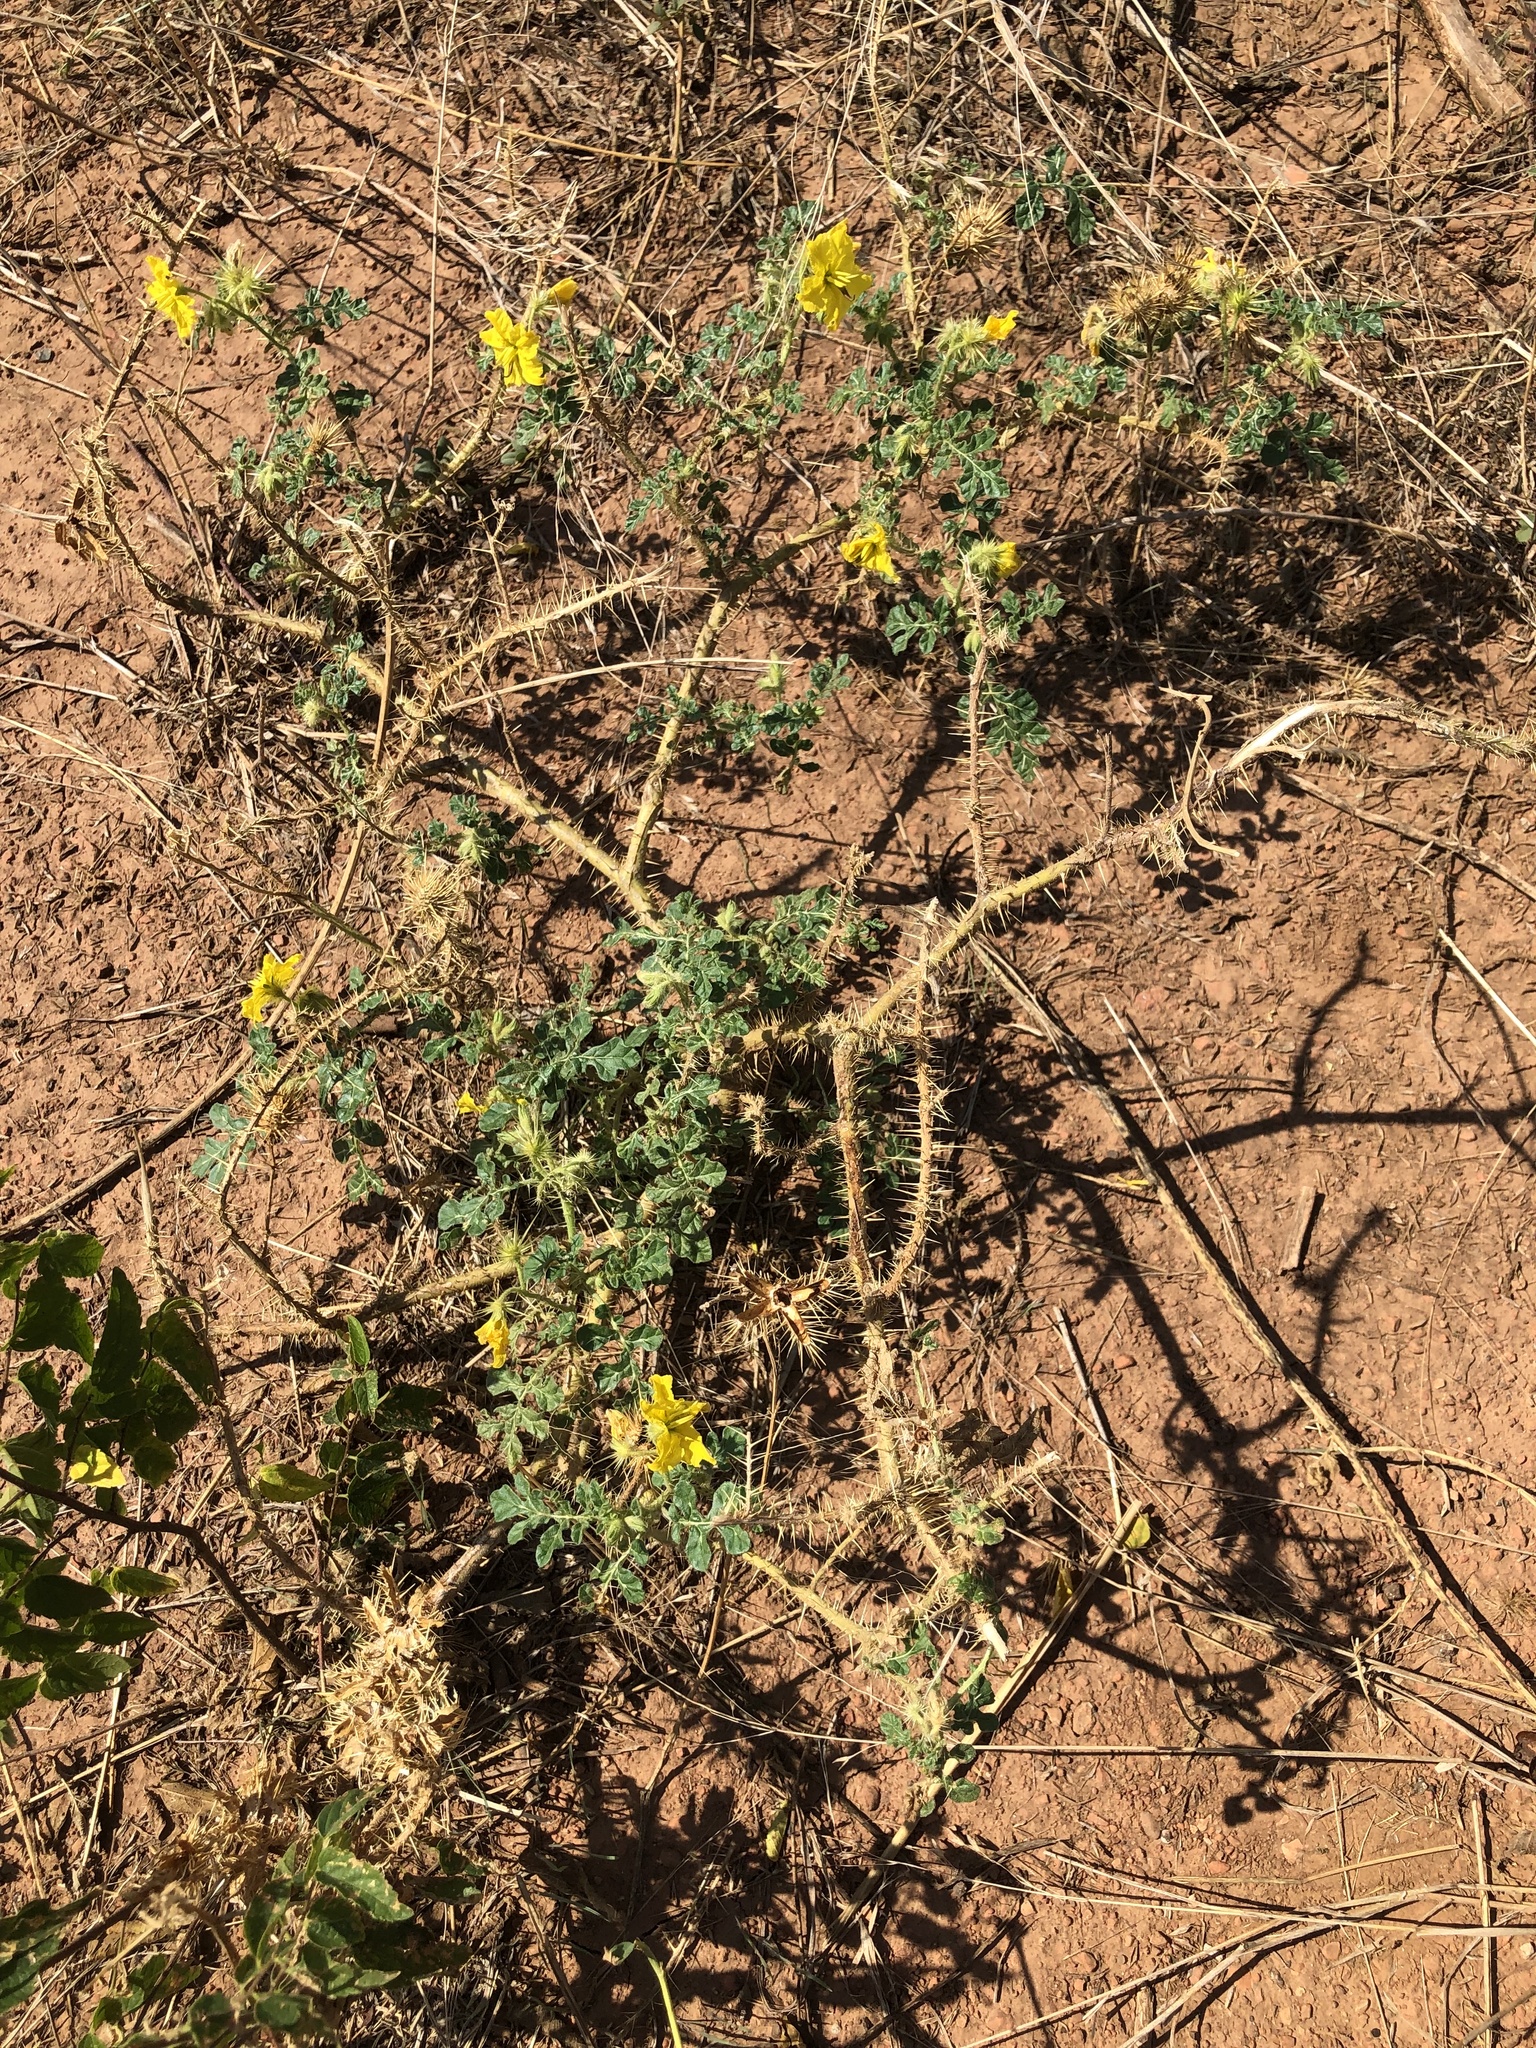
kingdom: Plantae
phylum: Tracheophyta
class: Magnoliopsida
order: Solanales
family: Solanaceae
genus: Solanum
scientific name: Solanum angustifolium
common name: Buffalobur nightshade
